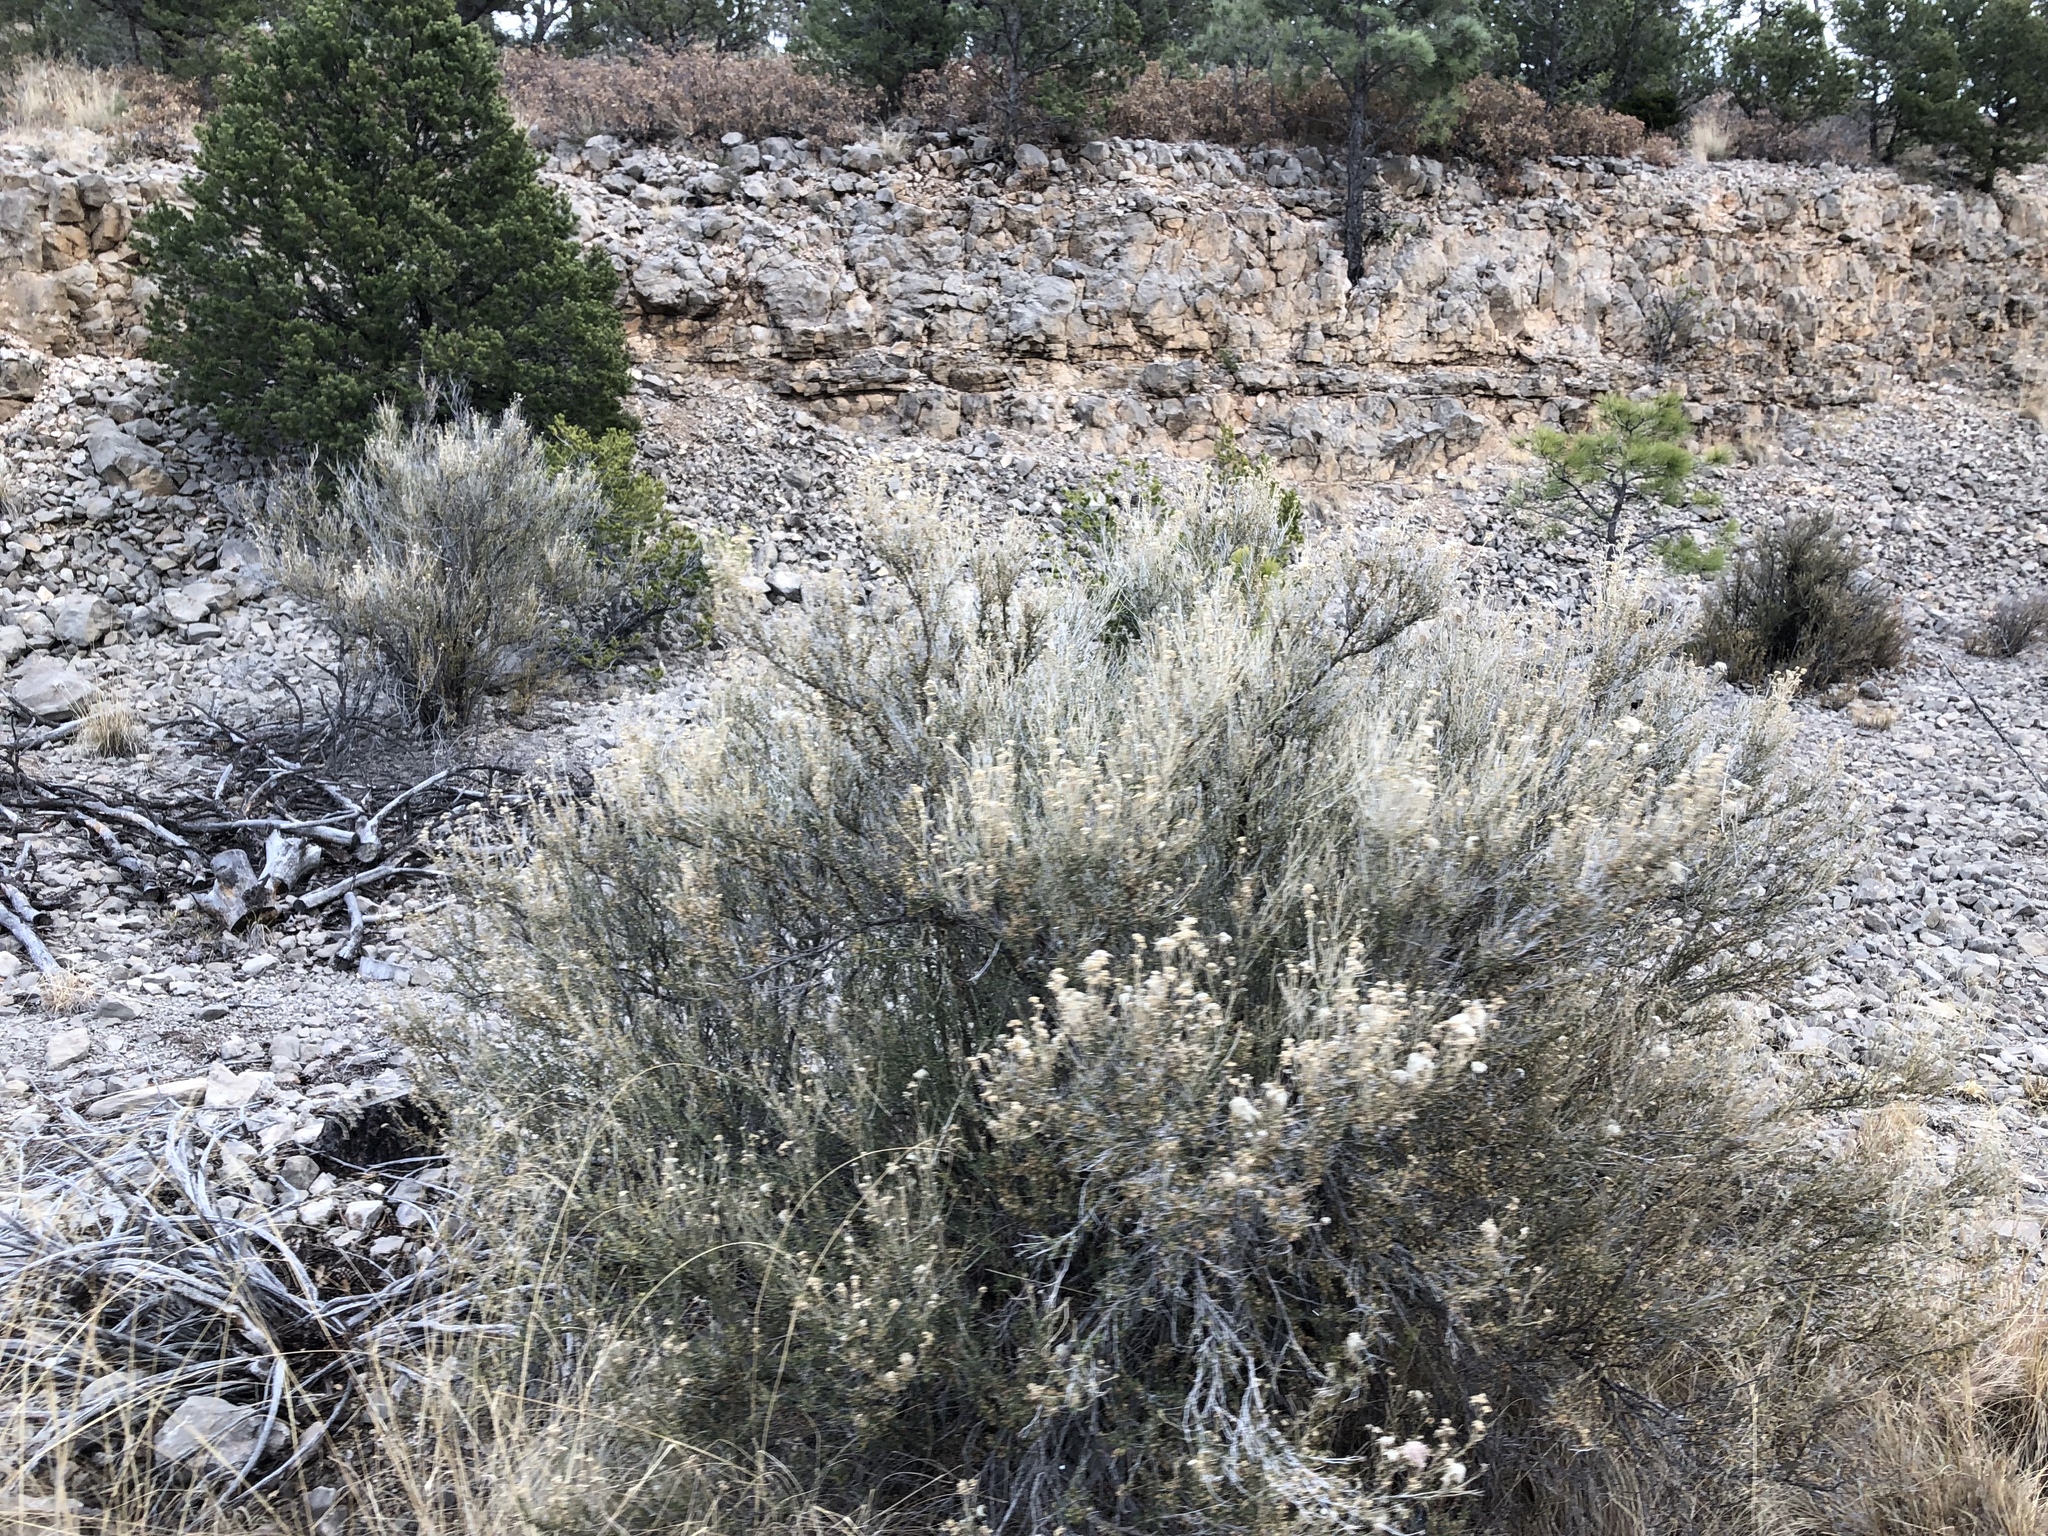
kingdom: Plantae
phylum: Tracheophyta
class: Magnoliopsida
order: Rosales
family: Rosaceae
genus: Fallugia
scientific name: Fallugia paradoxa
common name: Apache-plume
